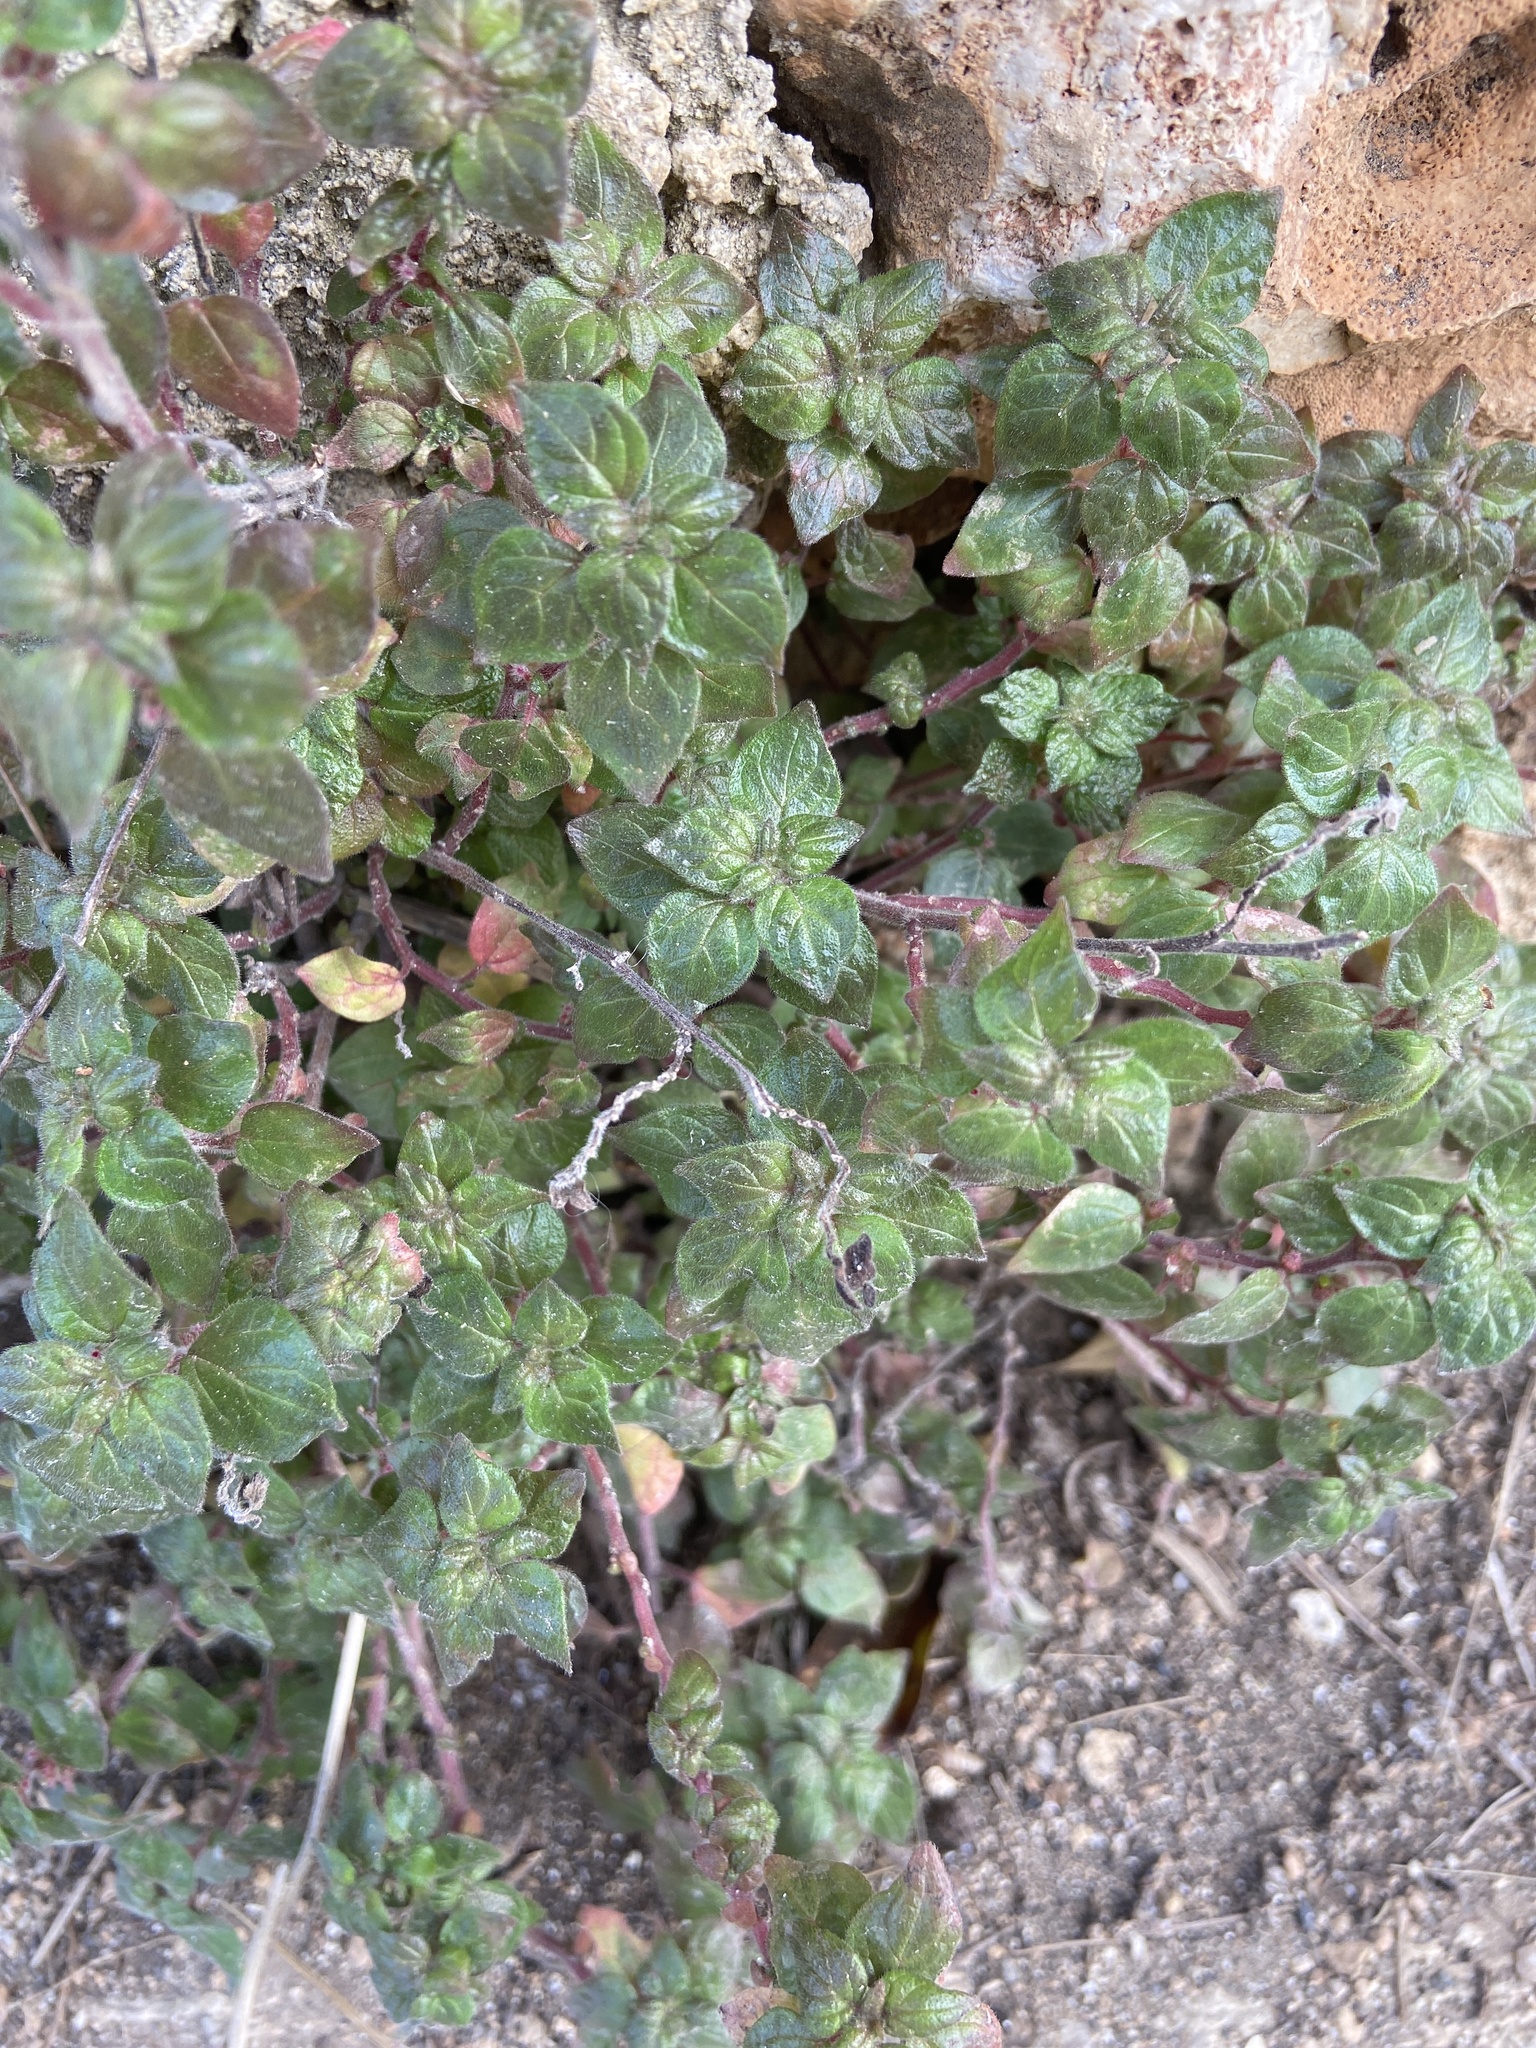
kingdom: Plantae
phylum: Tracheophyta
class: Magnoliopsida
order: Rosales
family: Urticaceae
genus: Parietaria
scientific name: Parietaria judaica
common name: Pellitory-of-the-wall
